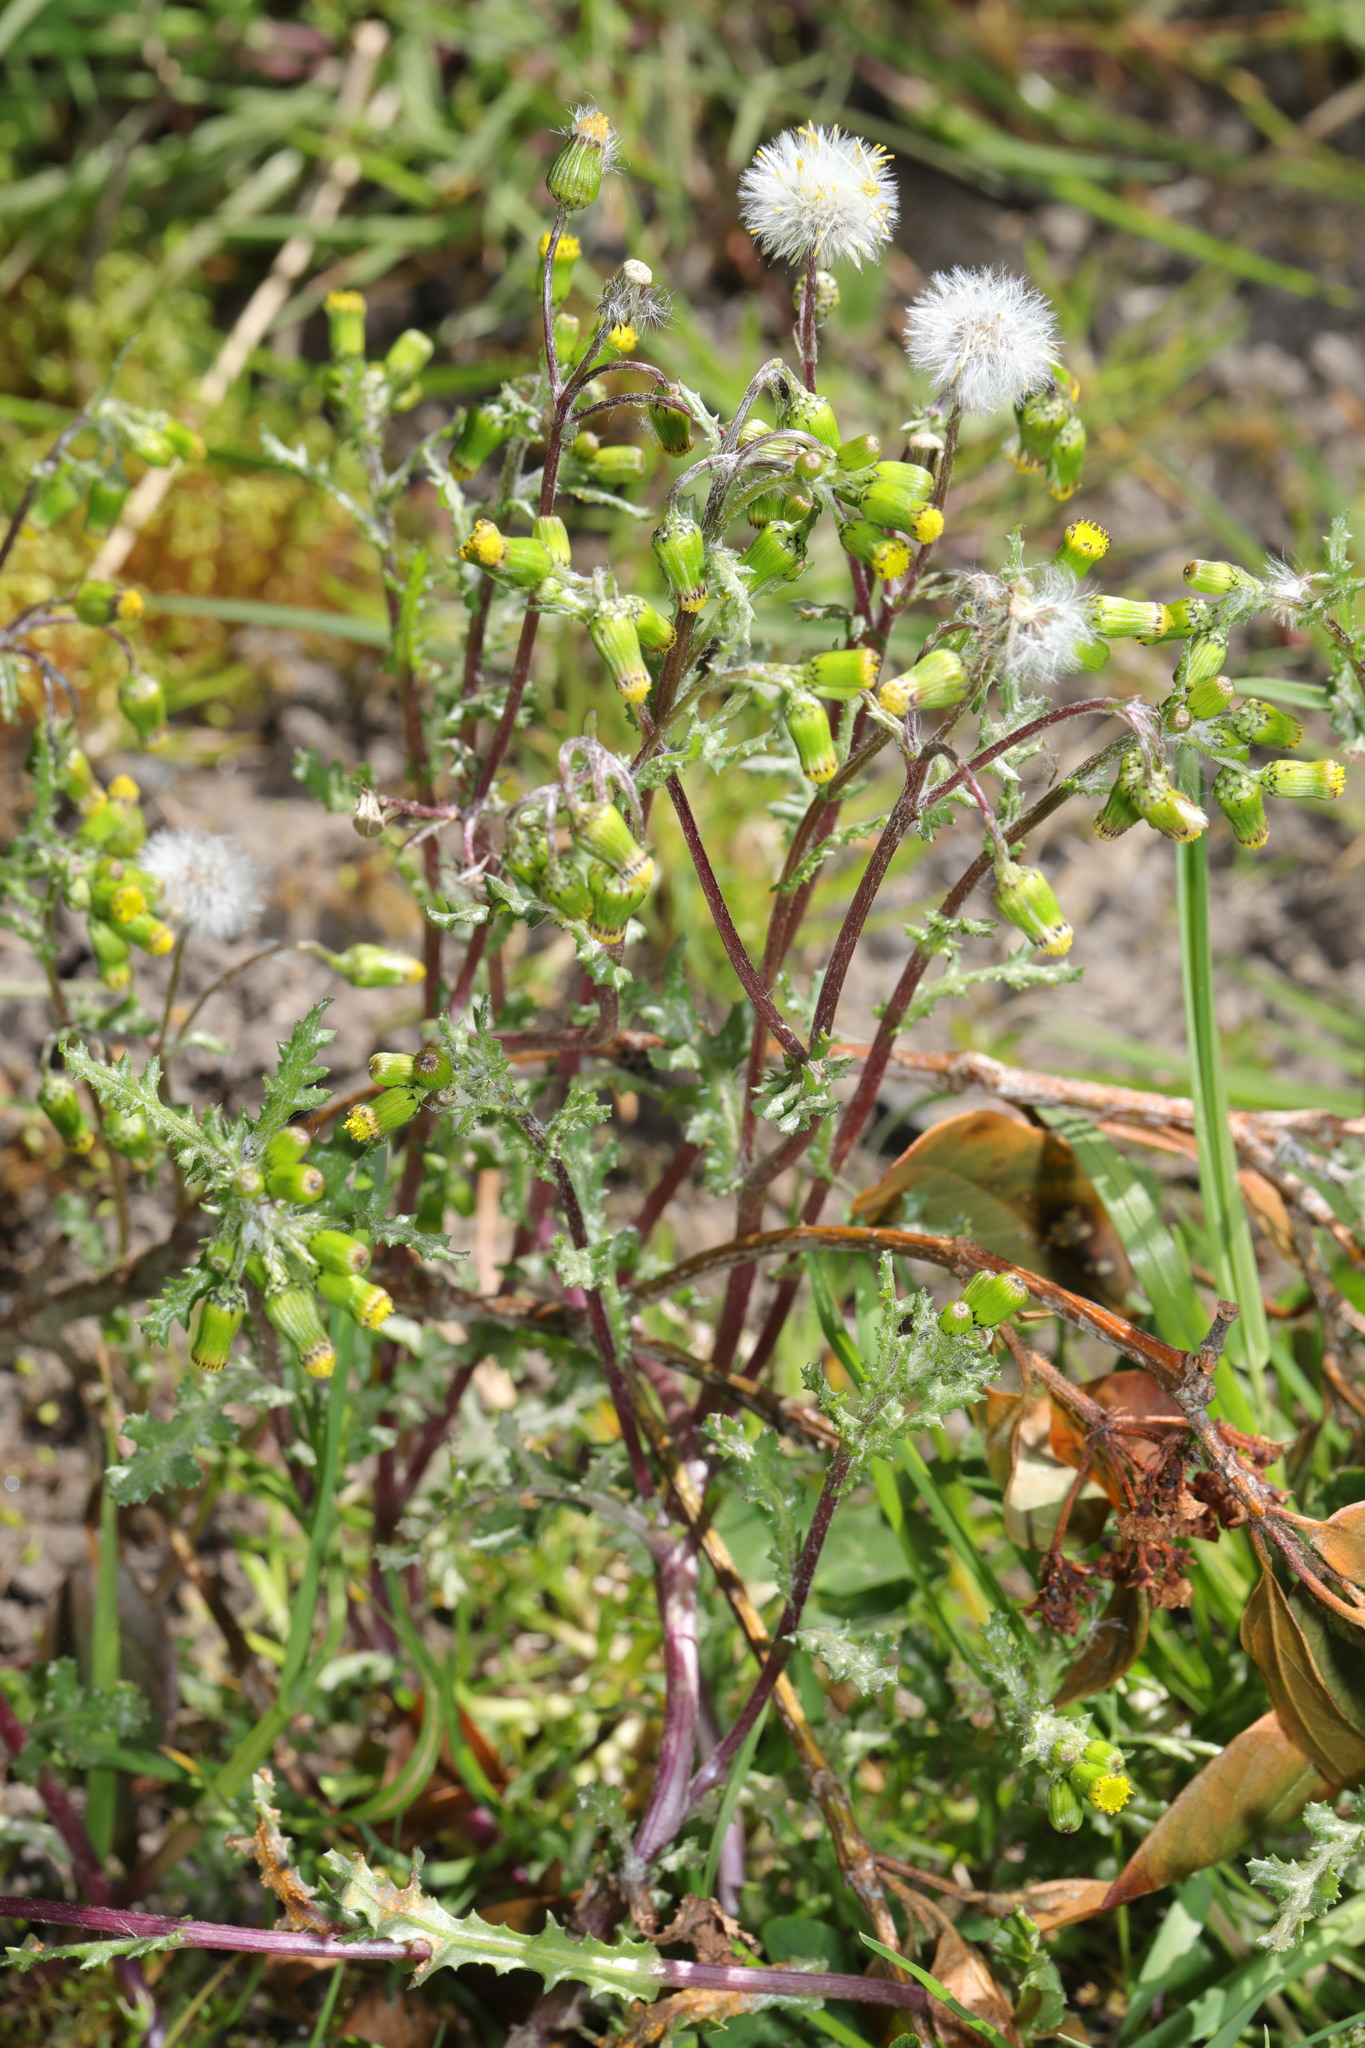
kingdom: Plantae
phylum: Tracheophyta
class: Magnoliopsida
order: Asterales
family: Asteraceae
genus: Senecio
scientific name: Senecio vulgaris
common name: Old-man-in-the-spring
